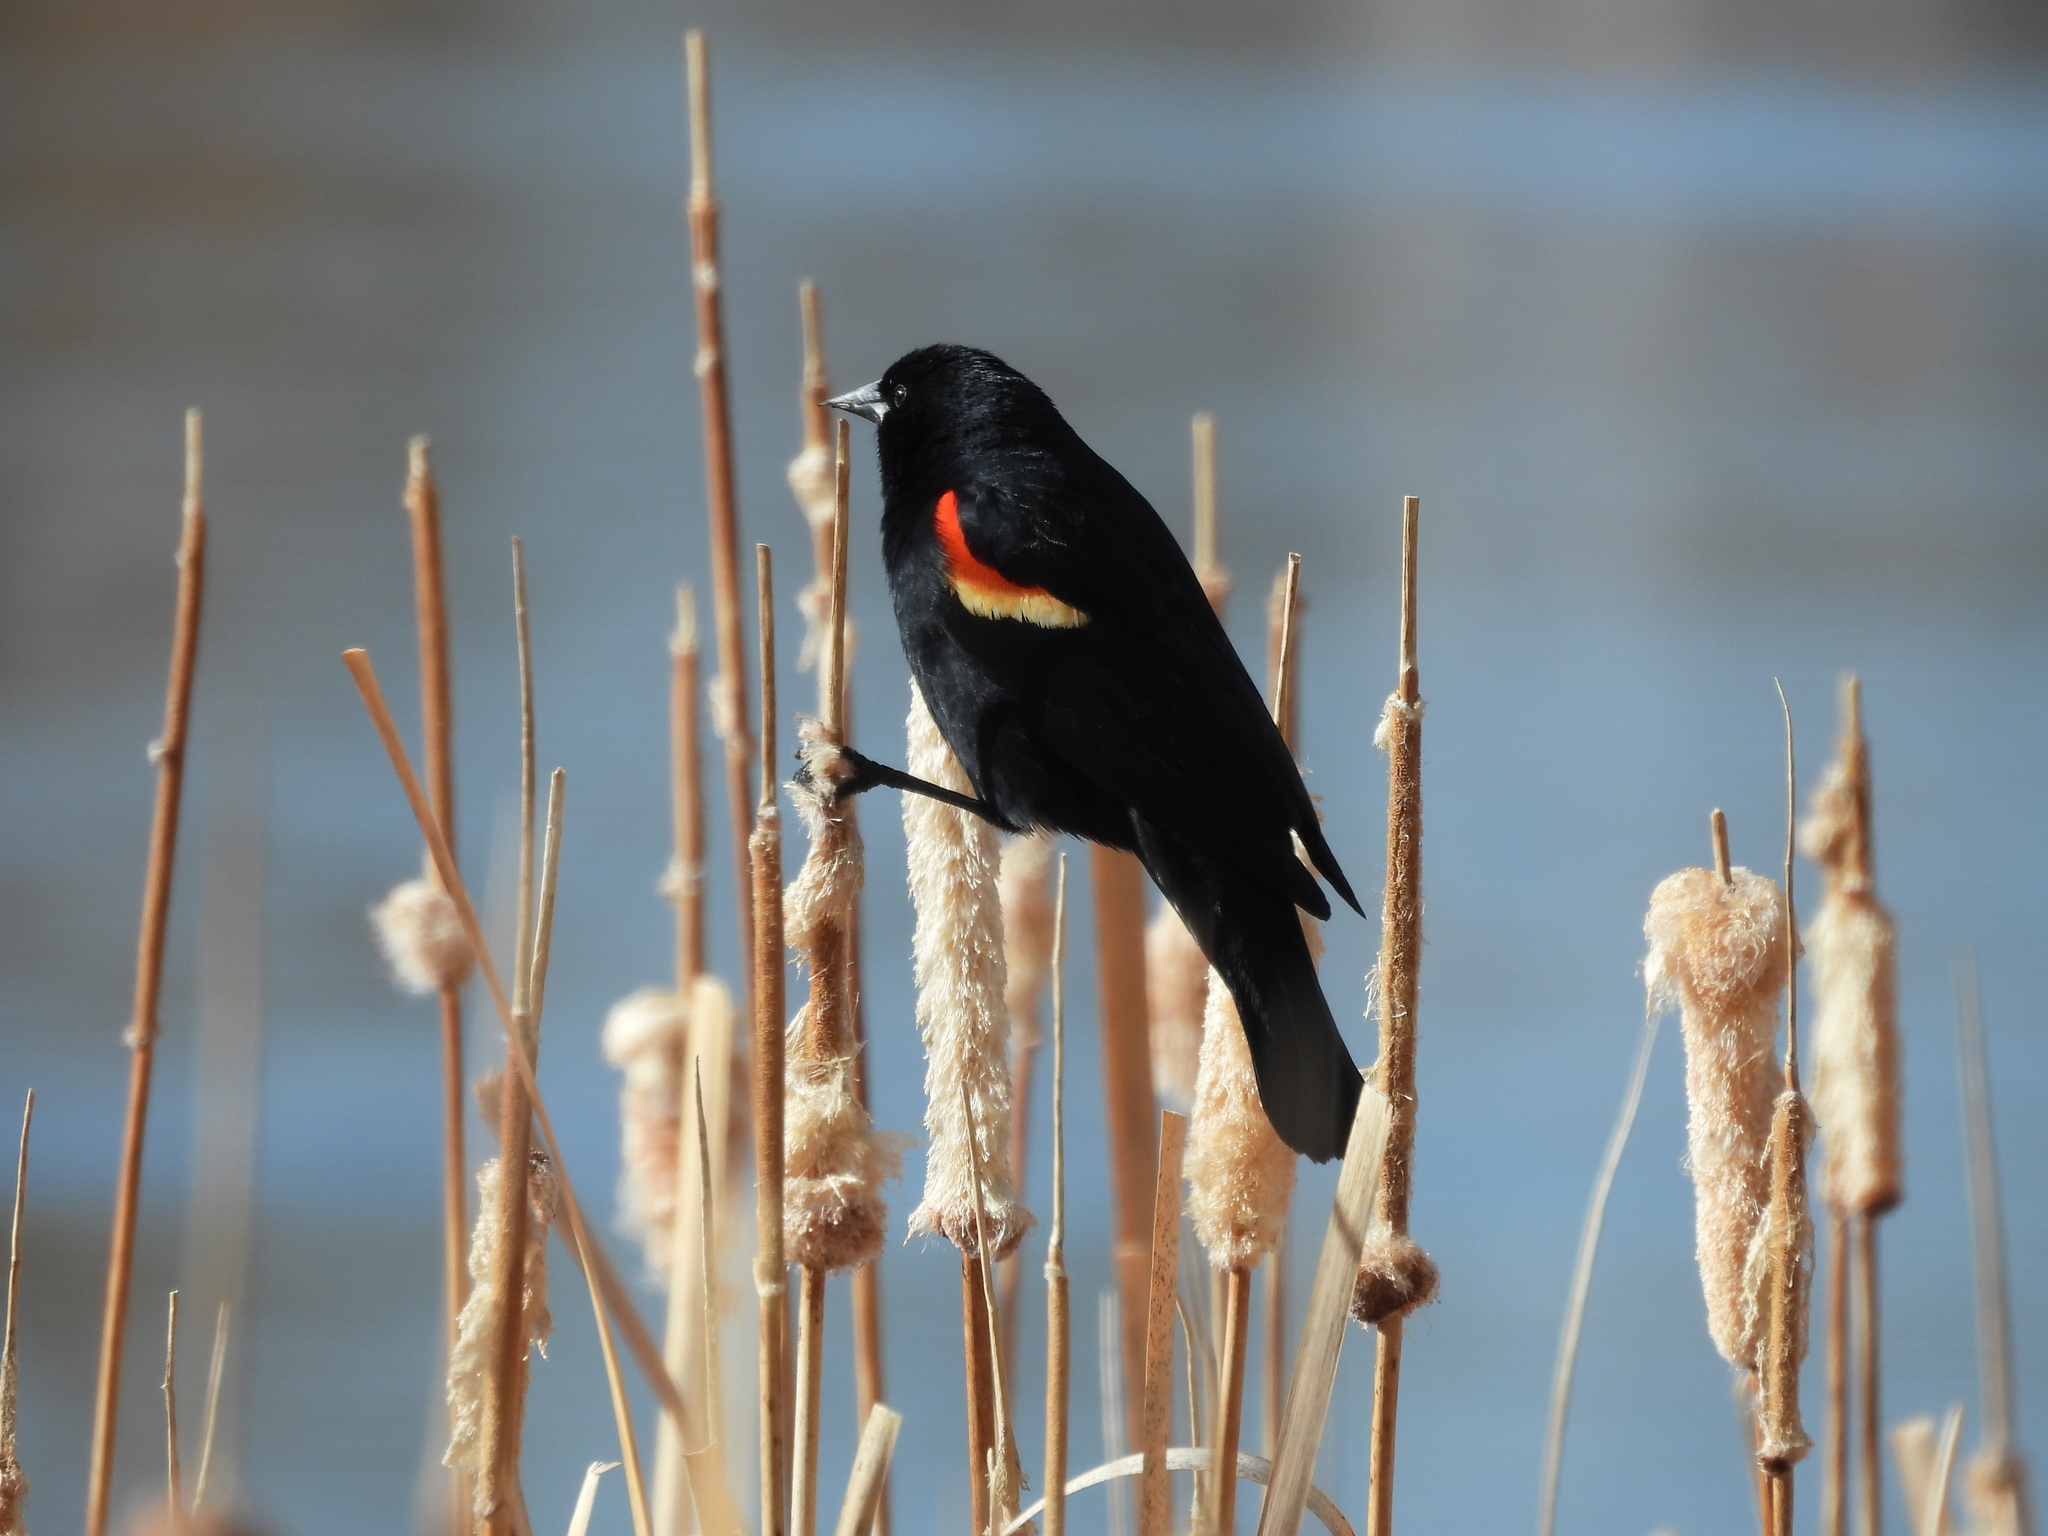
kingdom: Animalia
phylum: Chordata
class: Aves
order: Passeriformes
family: Icteridae
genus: Agelaius
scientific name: Agelaius phoeniceus
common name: Red-winged blackbird
